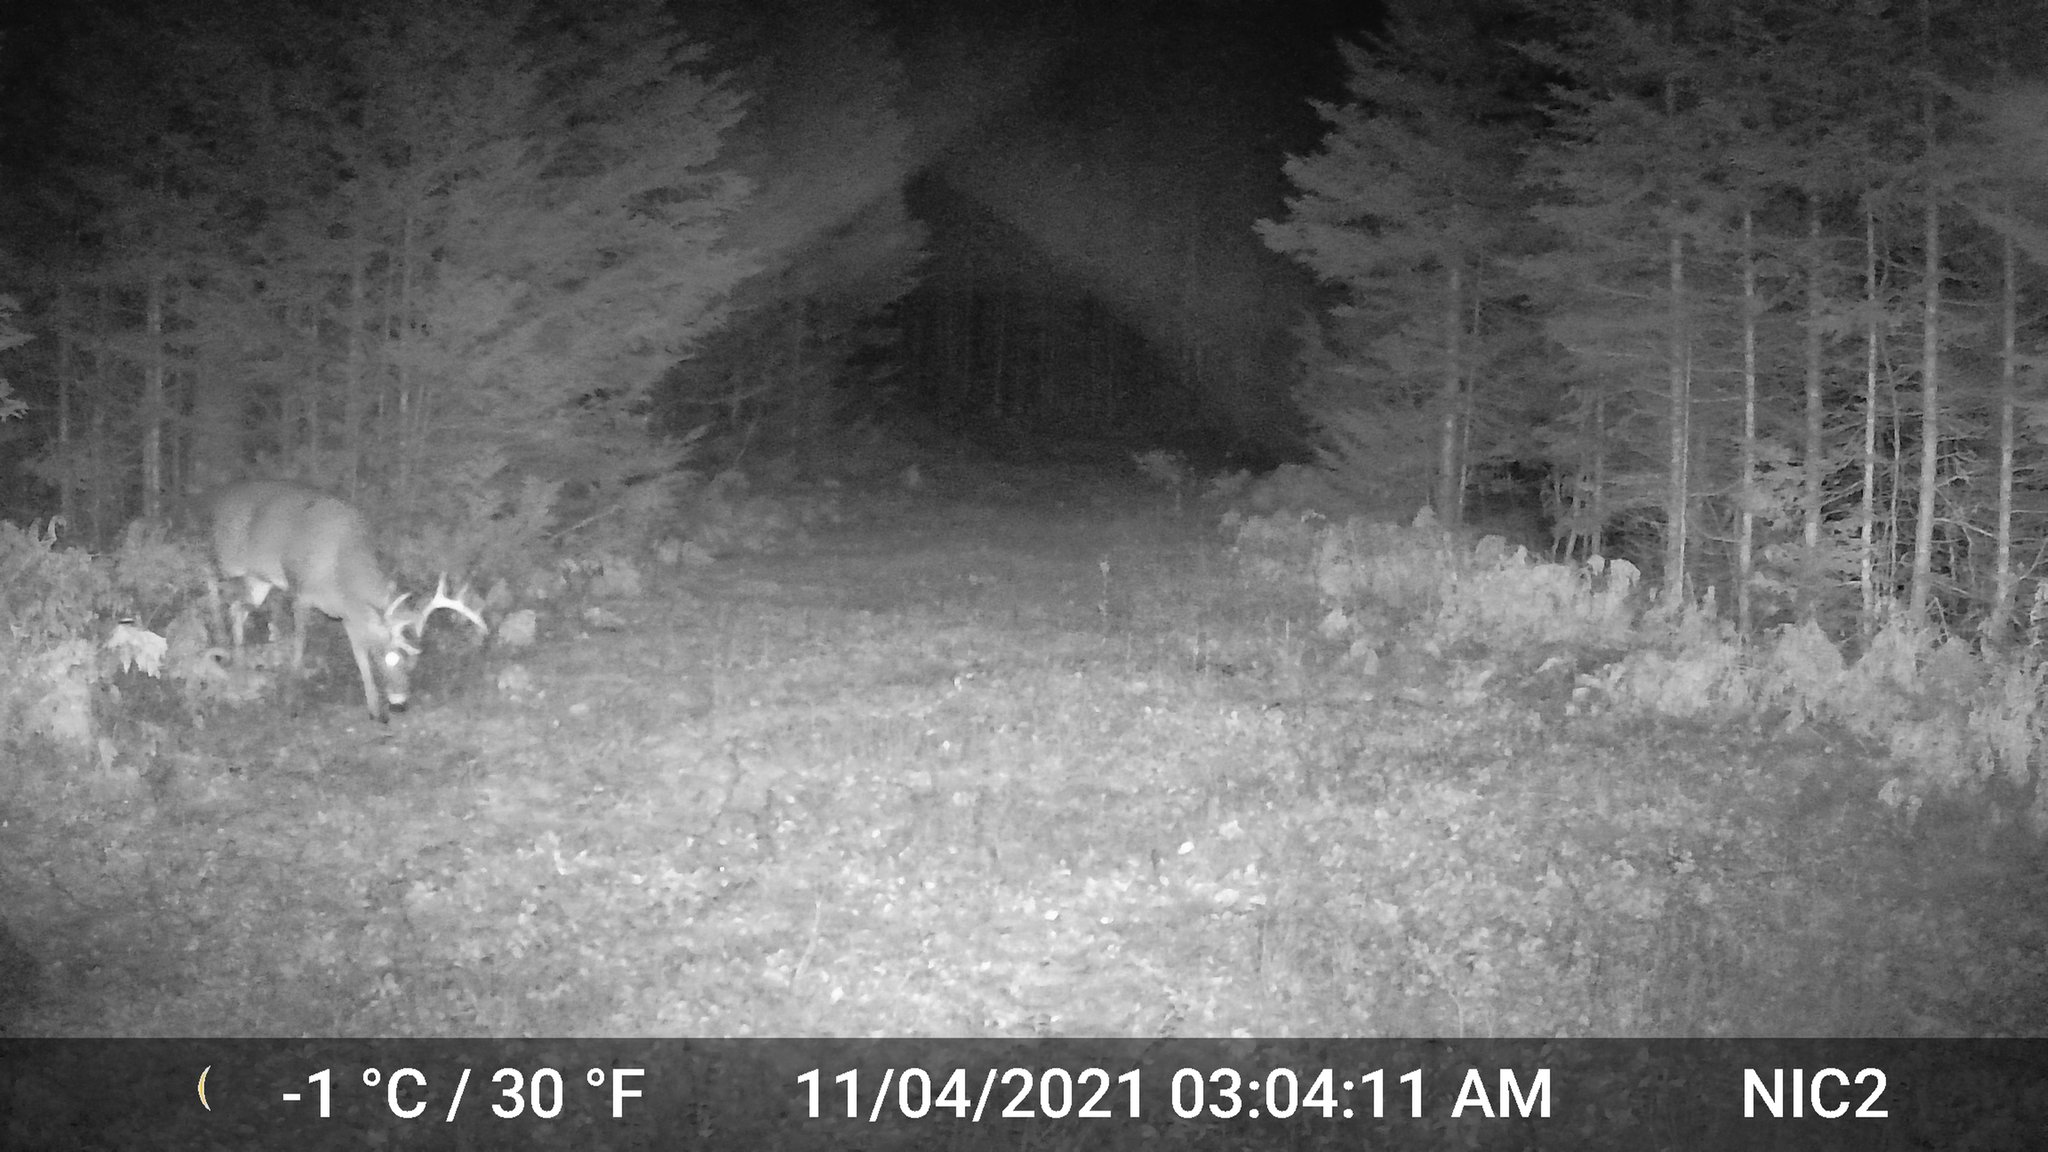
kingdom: Animalia
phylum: Chordata
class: Mammalia
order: Artiodactyla
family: Cervidae
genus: Odocoileus
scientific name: Odocoileus virginianus
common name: White-tailed deer
